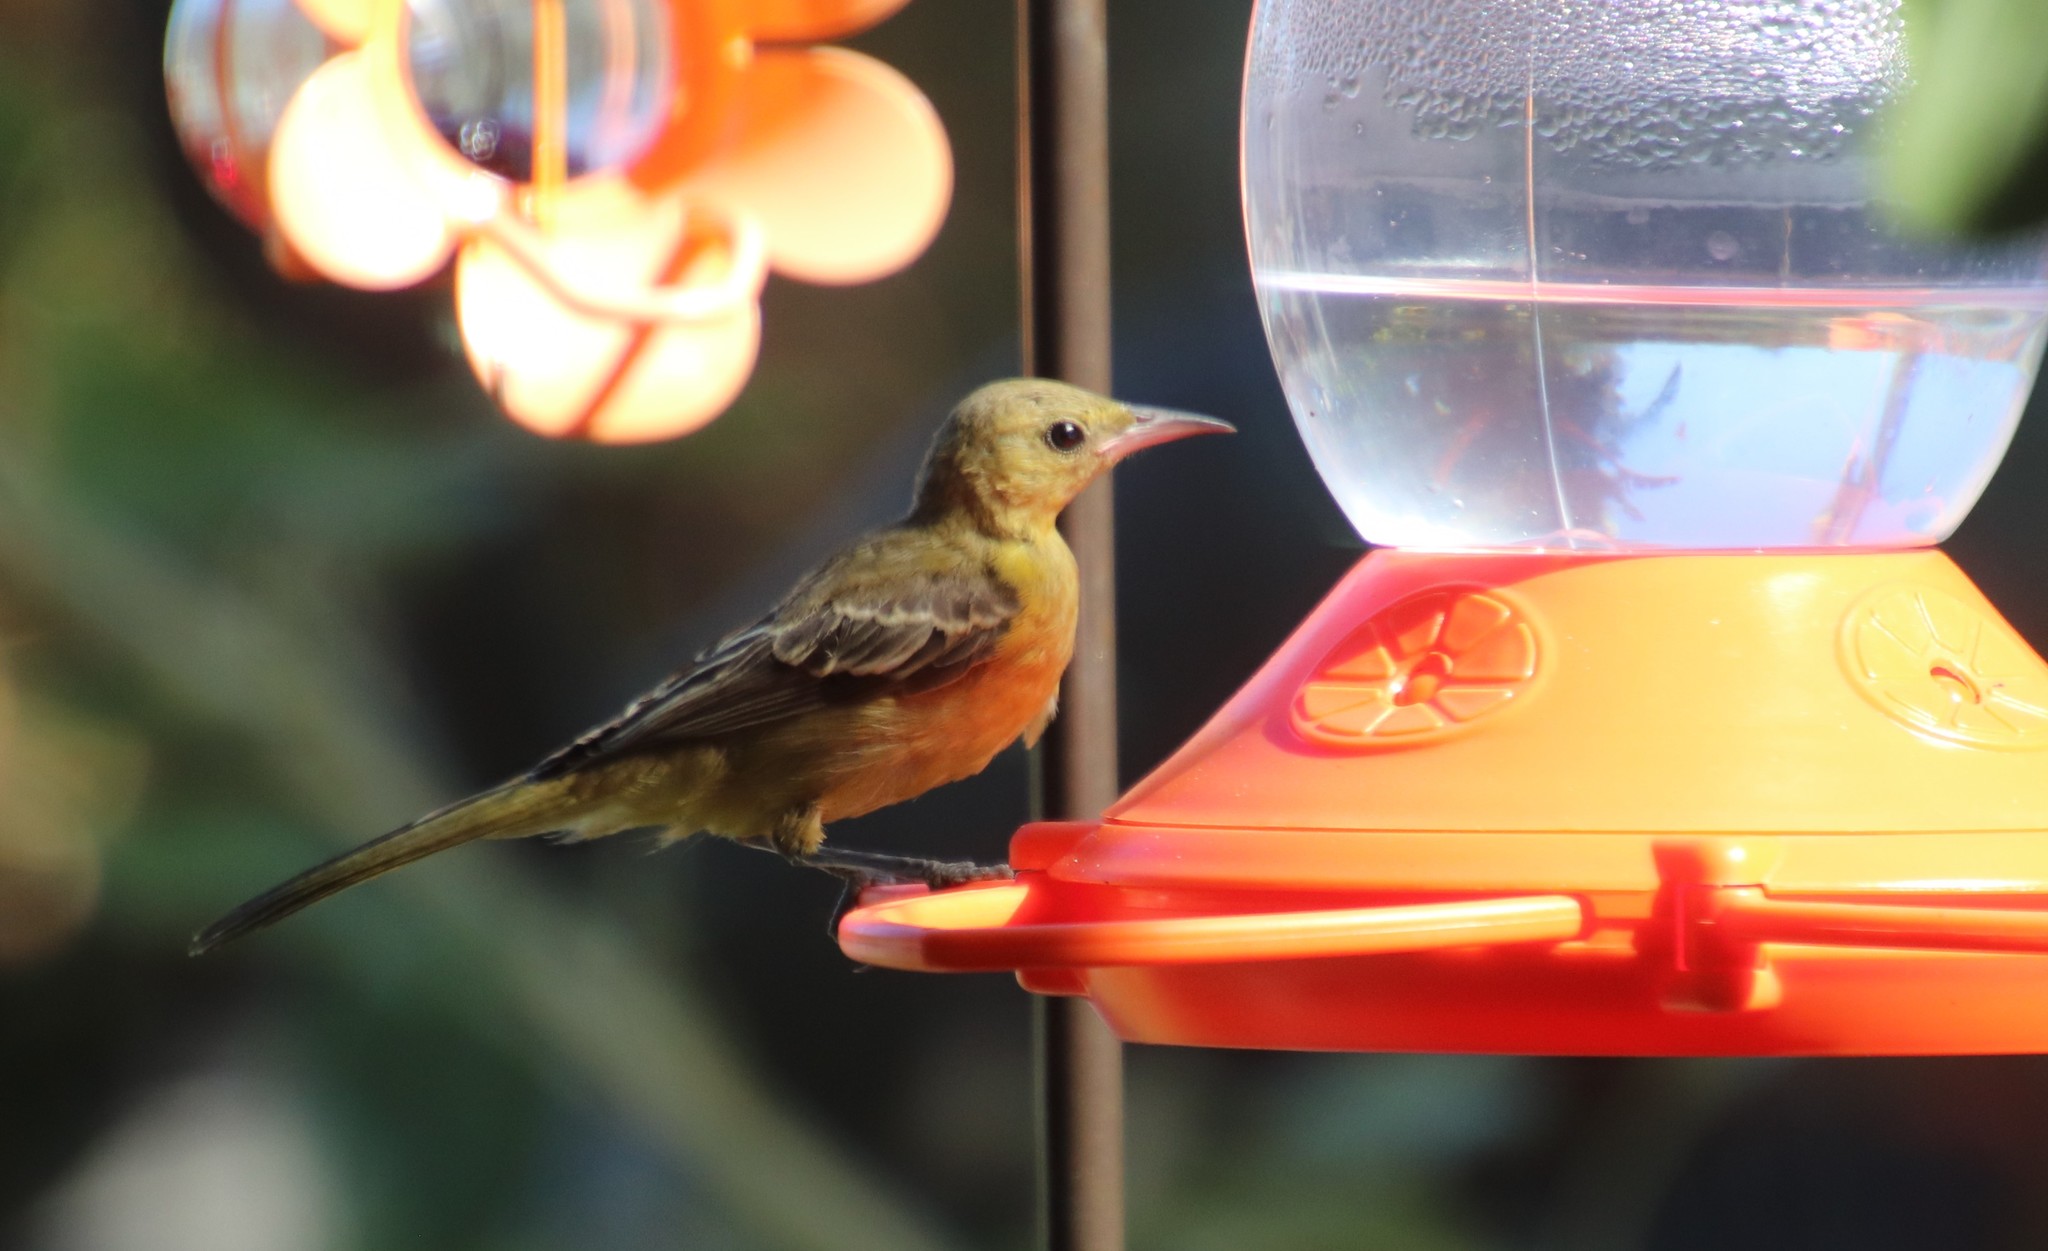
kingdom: Animalia
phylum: Chordata
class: Aves
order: Passeriformes
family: Icteridae
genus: Icterus
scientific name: Icterus cucullatus
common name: Hooded oriole
